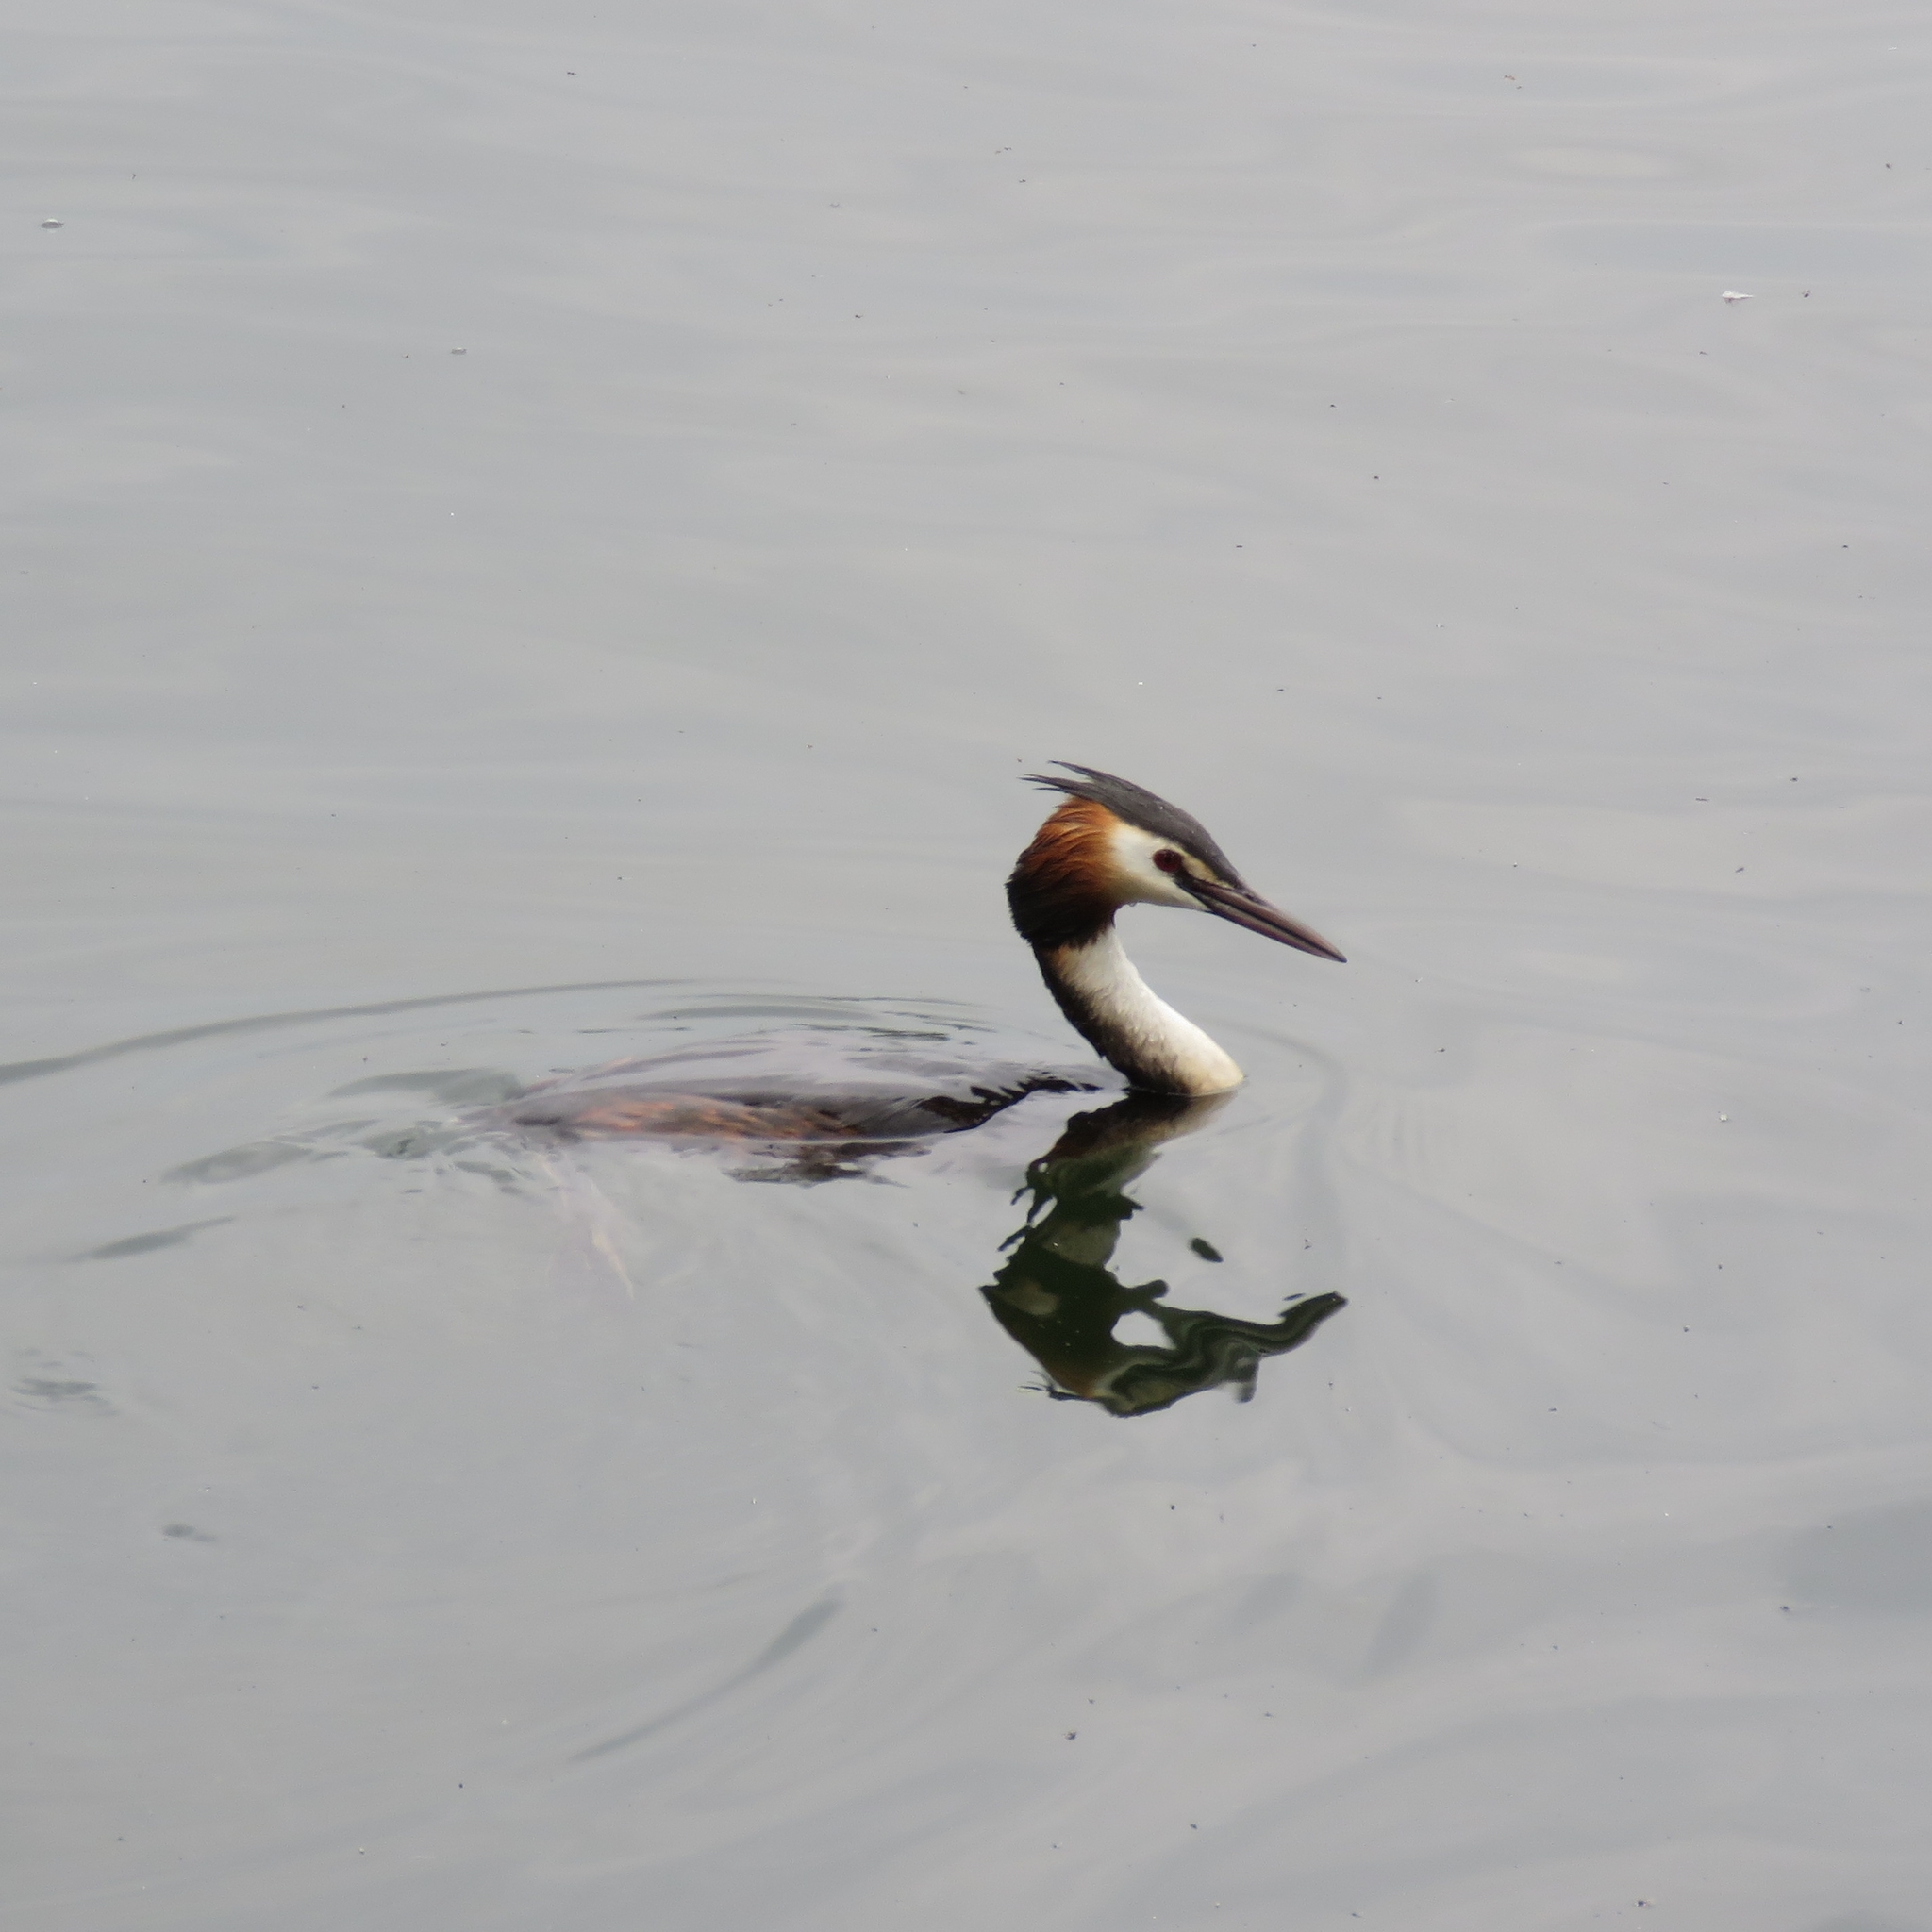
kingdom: Animalia
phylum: Chordata
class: Aves
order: Podicipediformes
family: Podicipedidae
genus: Podiceps
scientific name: Podiceps cristatus
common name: Great crested grebe
